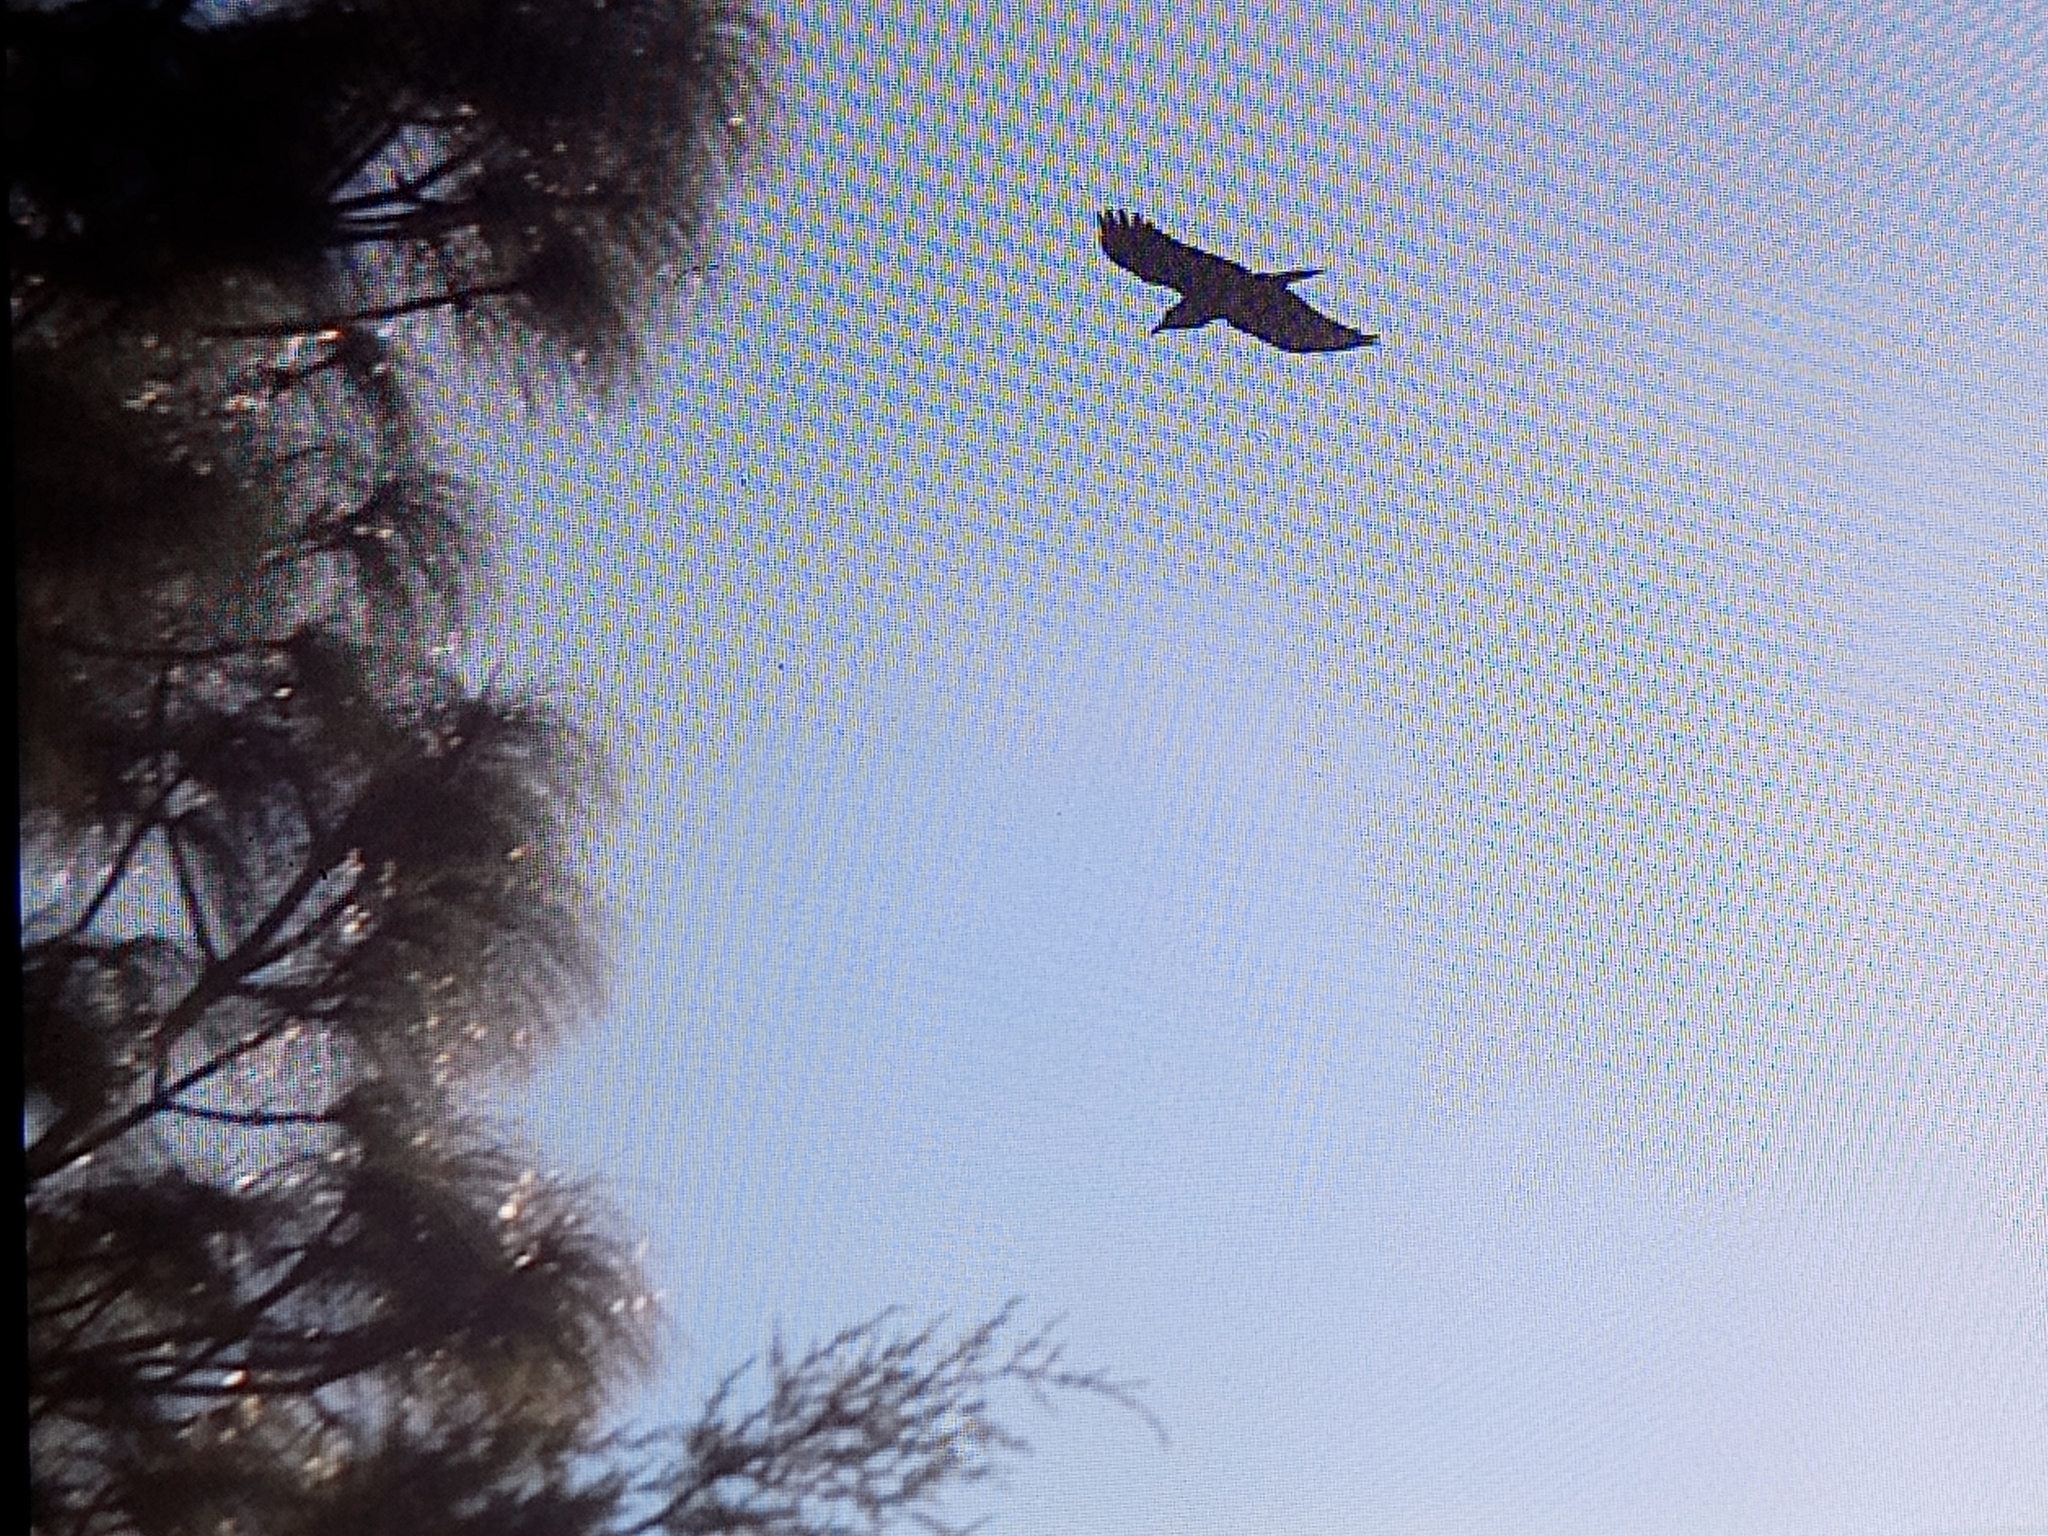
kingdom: Animalia
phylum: Chordata
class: Aves
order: Passeriformes
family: Corvidae
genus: Corvus
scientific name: Corvus corax
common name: Common raven
